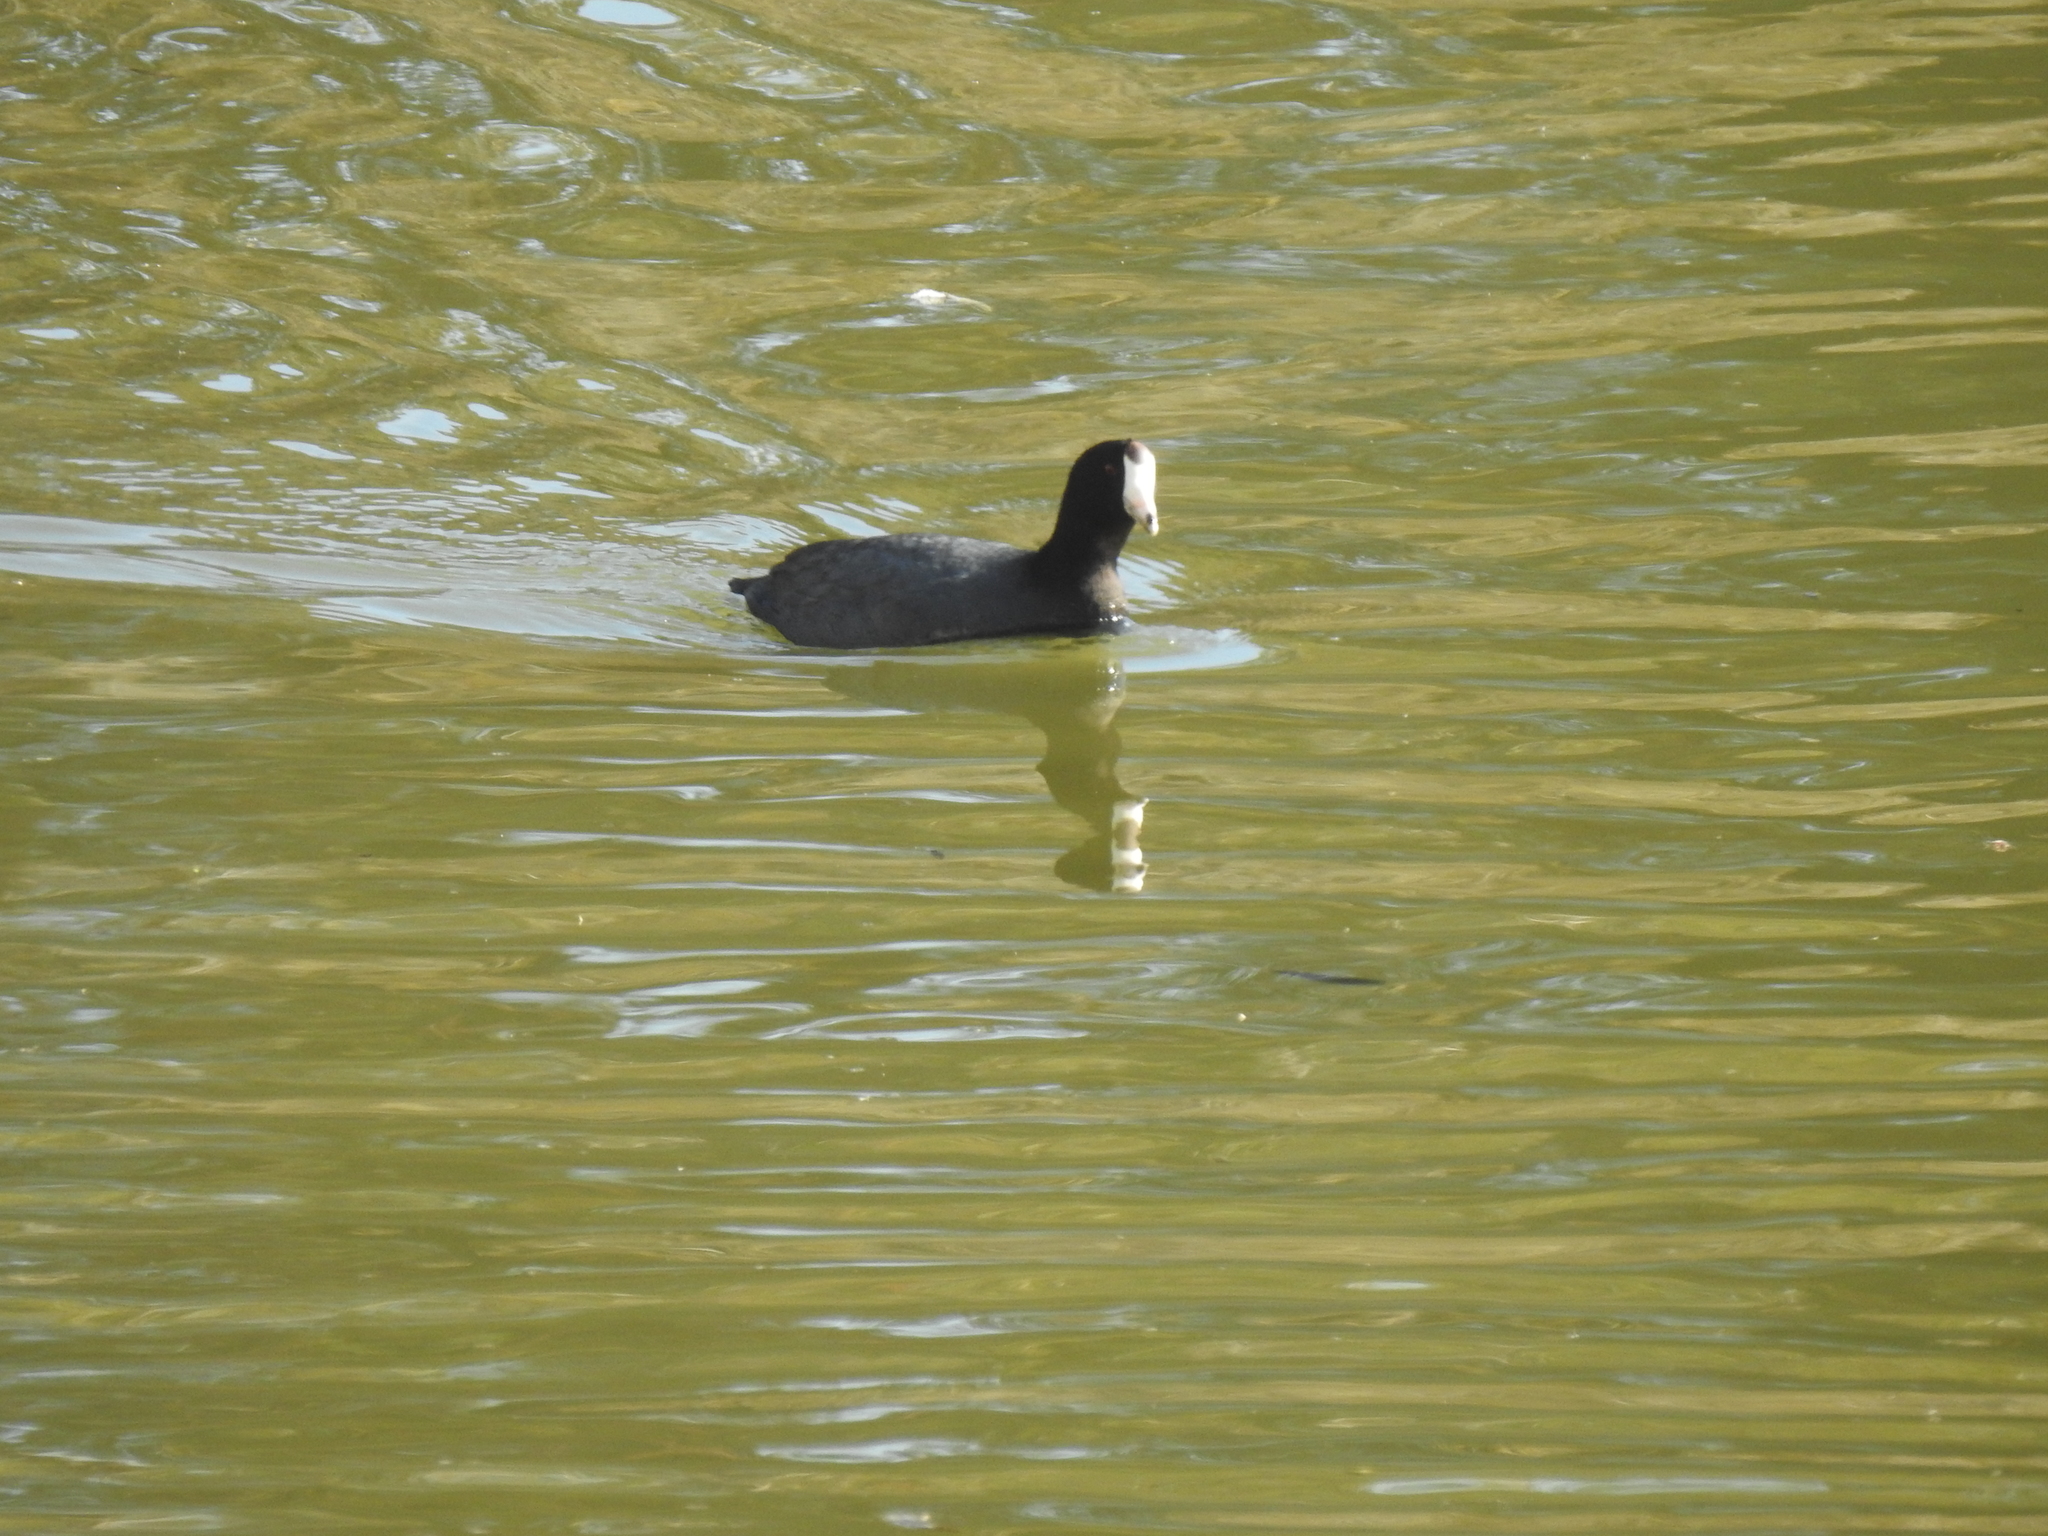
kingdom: Animalia
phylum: Chordata
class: Aves
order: Gruiformes
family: Rallidae
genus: Fulica
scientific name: Fulica americana
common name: American coot
